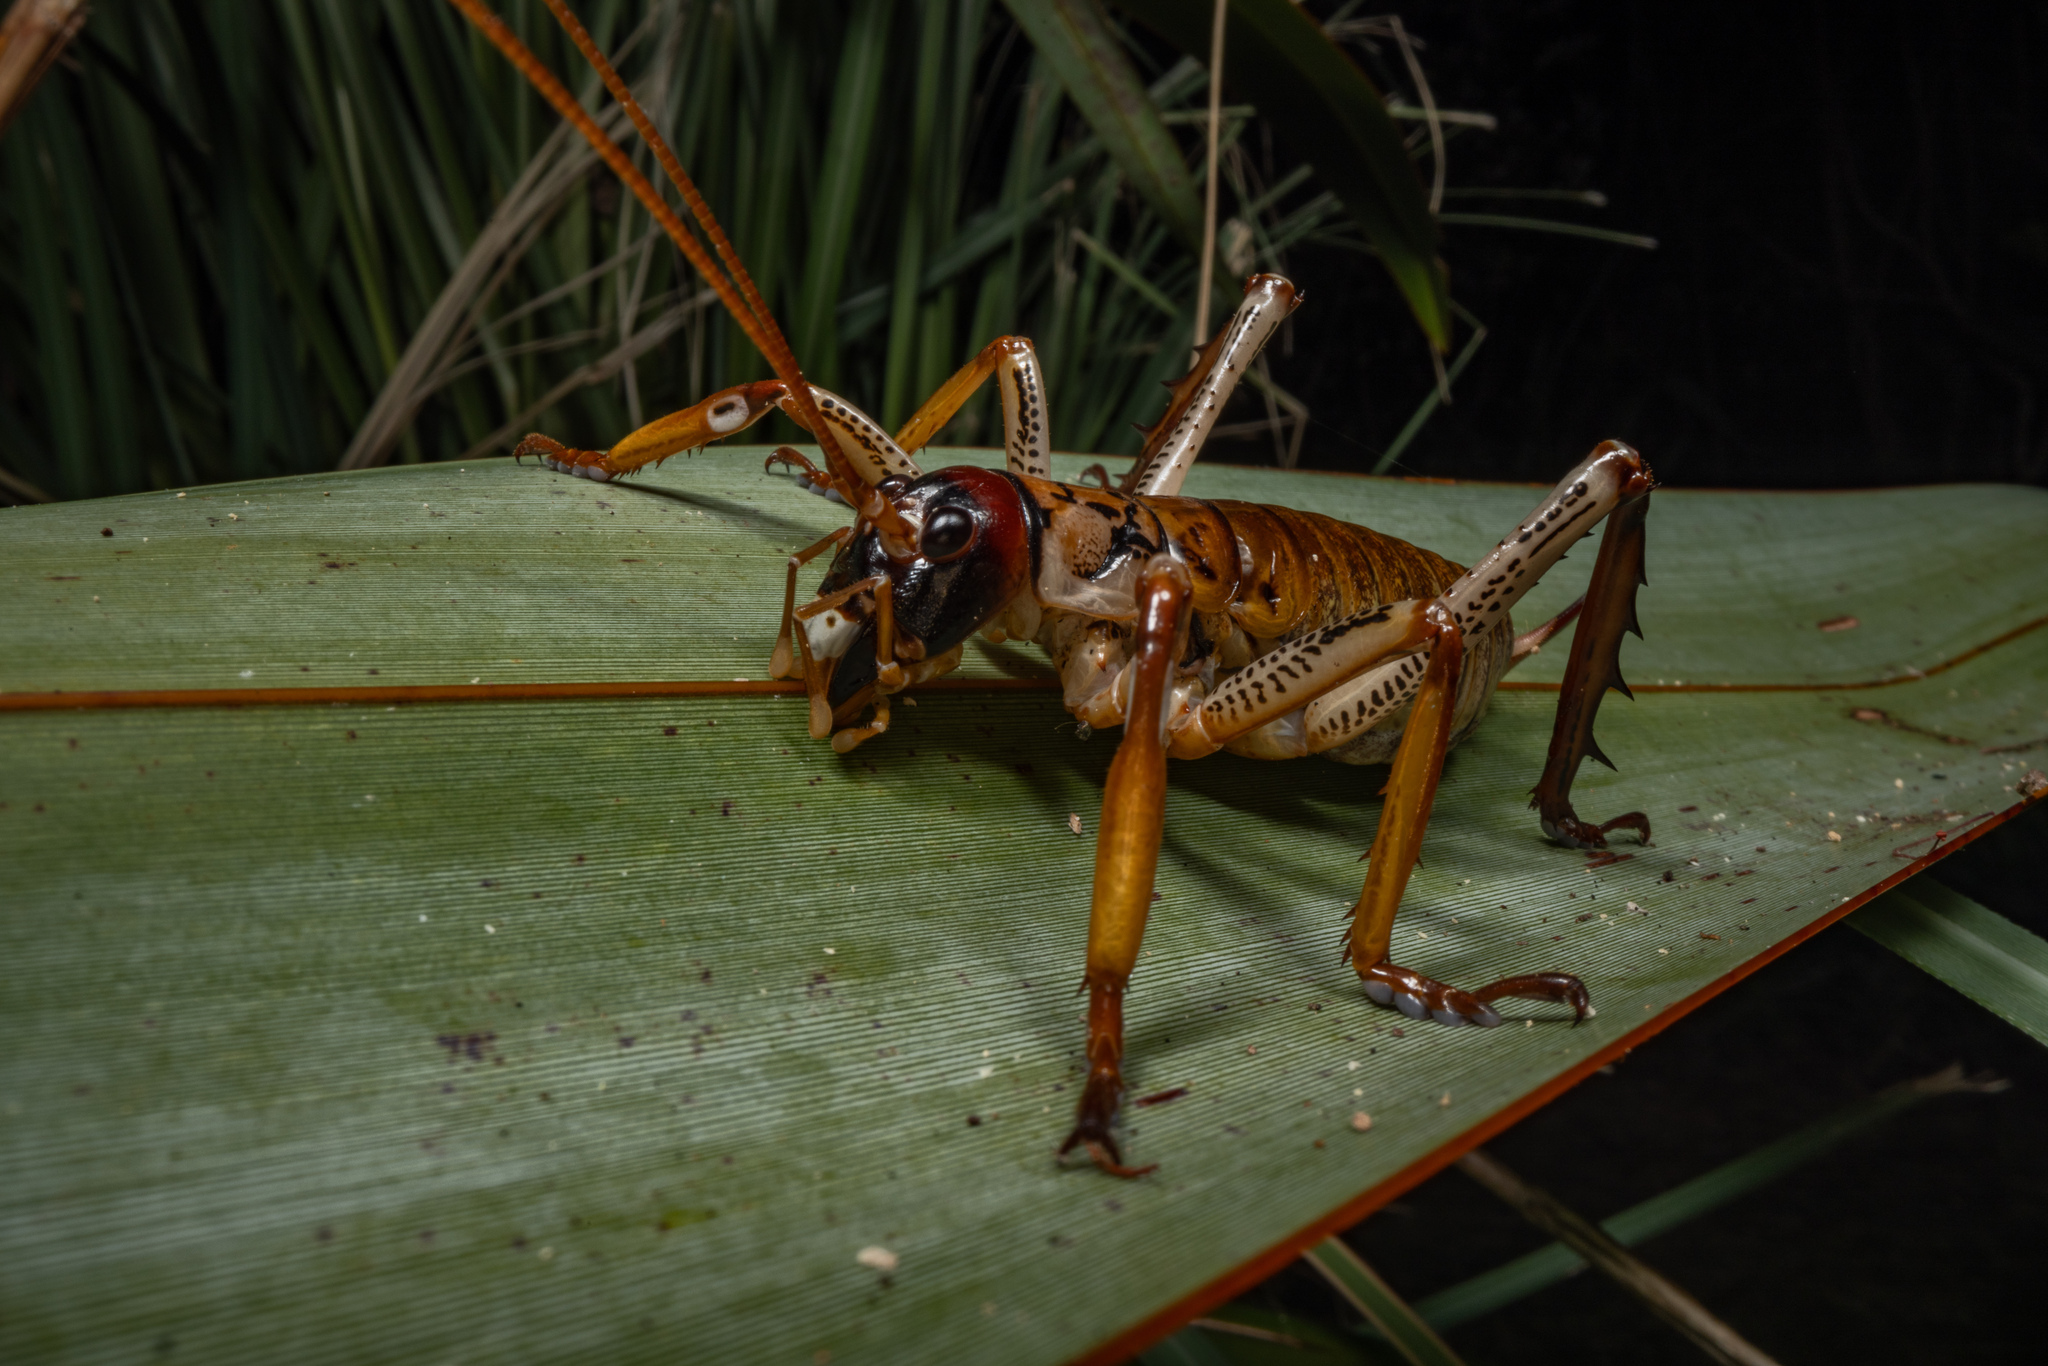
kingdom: Animalia
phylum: Arthropoda
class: Insecta
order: Orthoptera
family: Anostostomatidae
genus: Hemideina
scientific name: Hemideina thoracica
